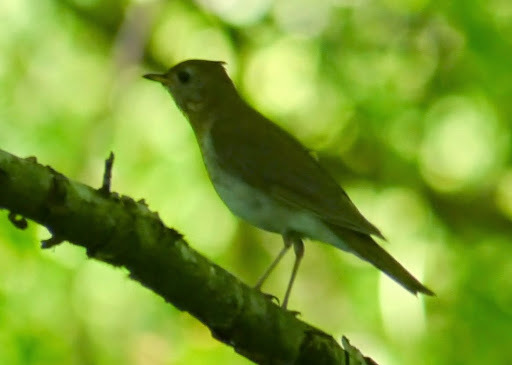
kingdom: Animalia
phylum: Chordata
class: Aves
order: Passeriformes
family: Turdidae
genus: Catharus
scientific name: Catharus fuscescens
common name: Veery
